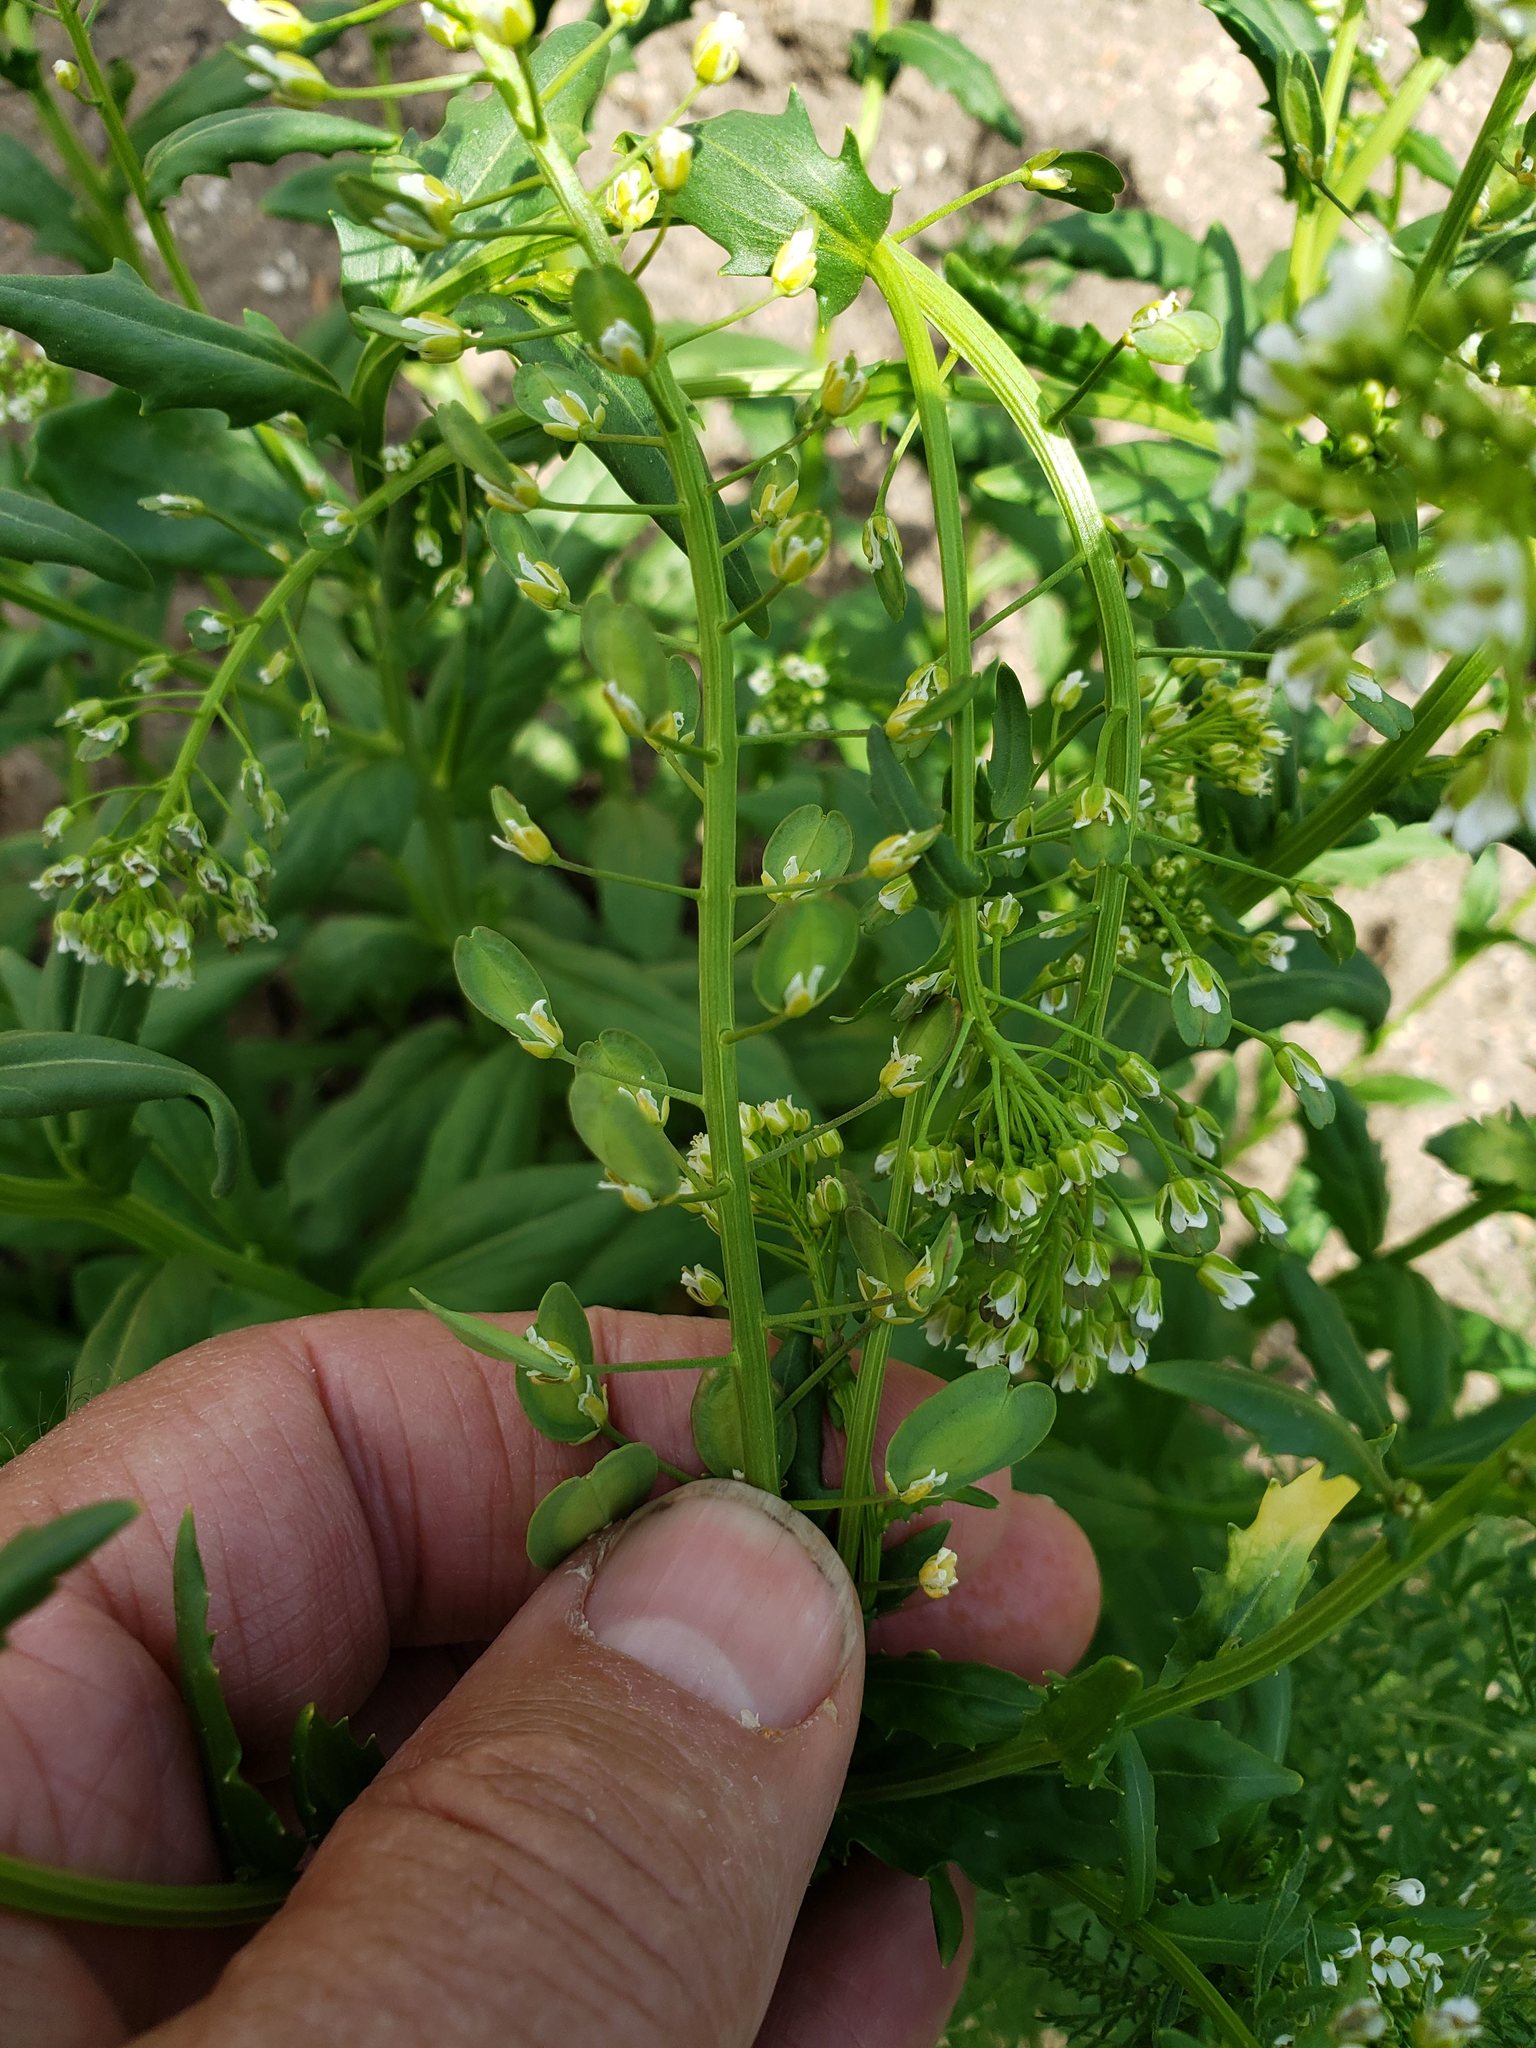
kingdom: Plantae
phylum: Tracheophyta
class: Magnoliopsida
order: Brassicales
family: Brassicaceae
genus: Thlaspi
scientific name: Thlaspi arvense
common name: Field pennycress
